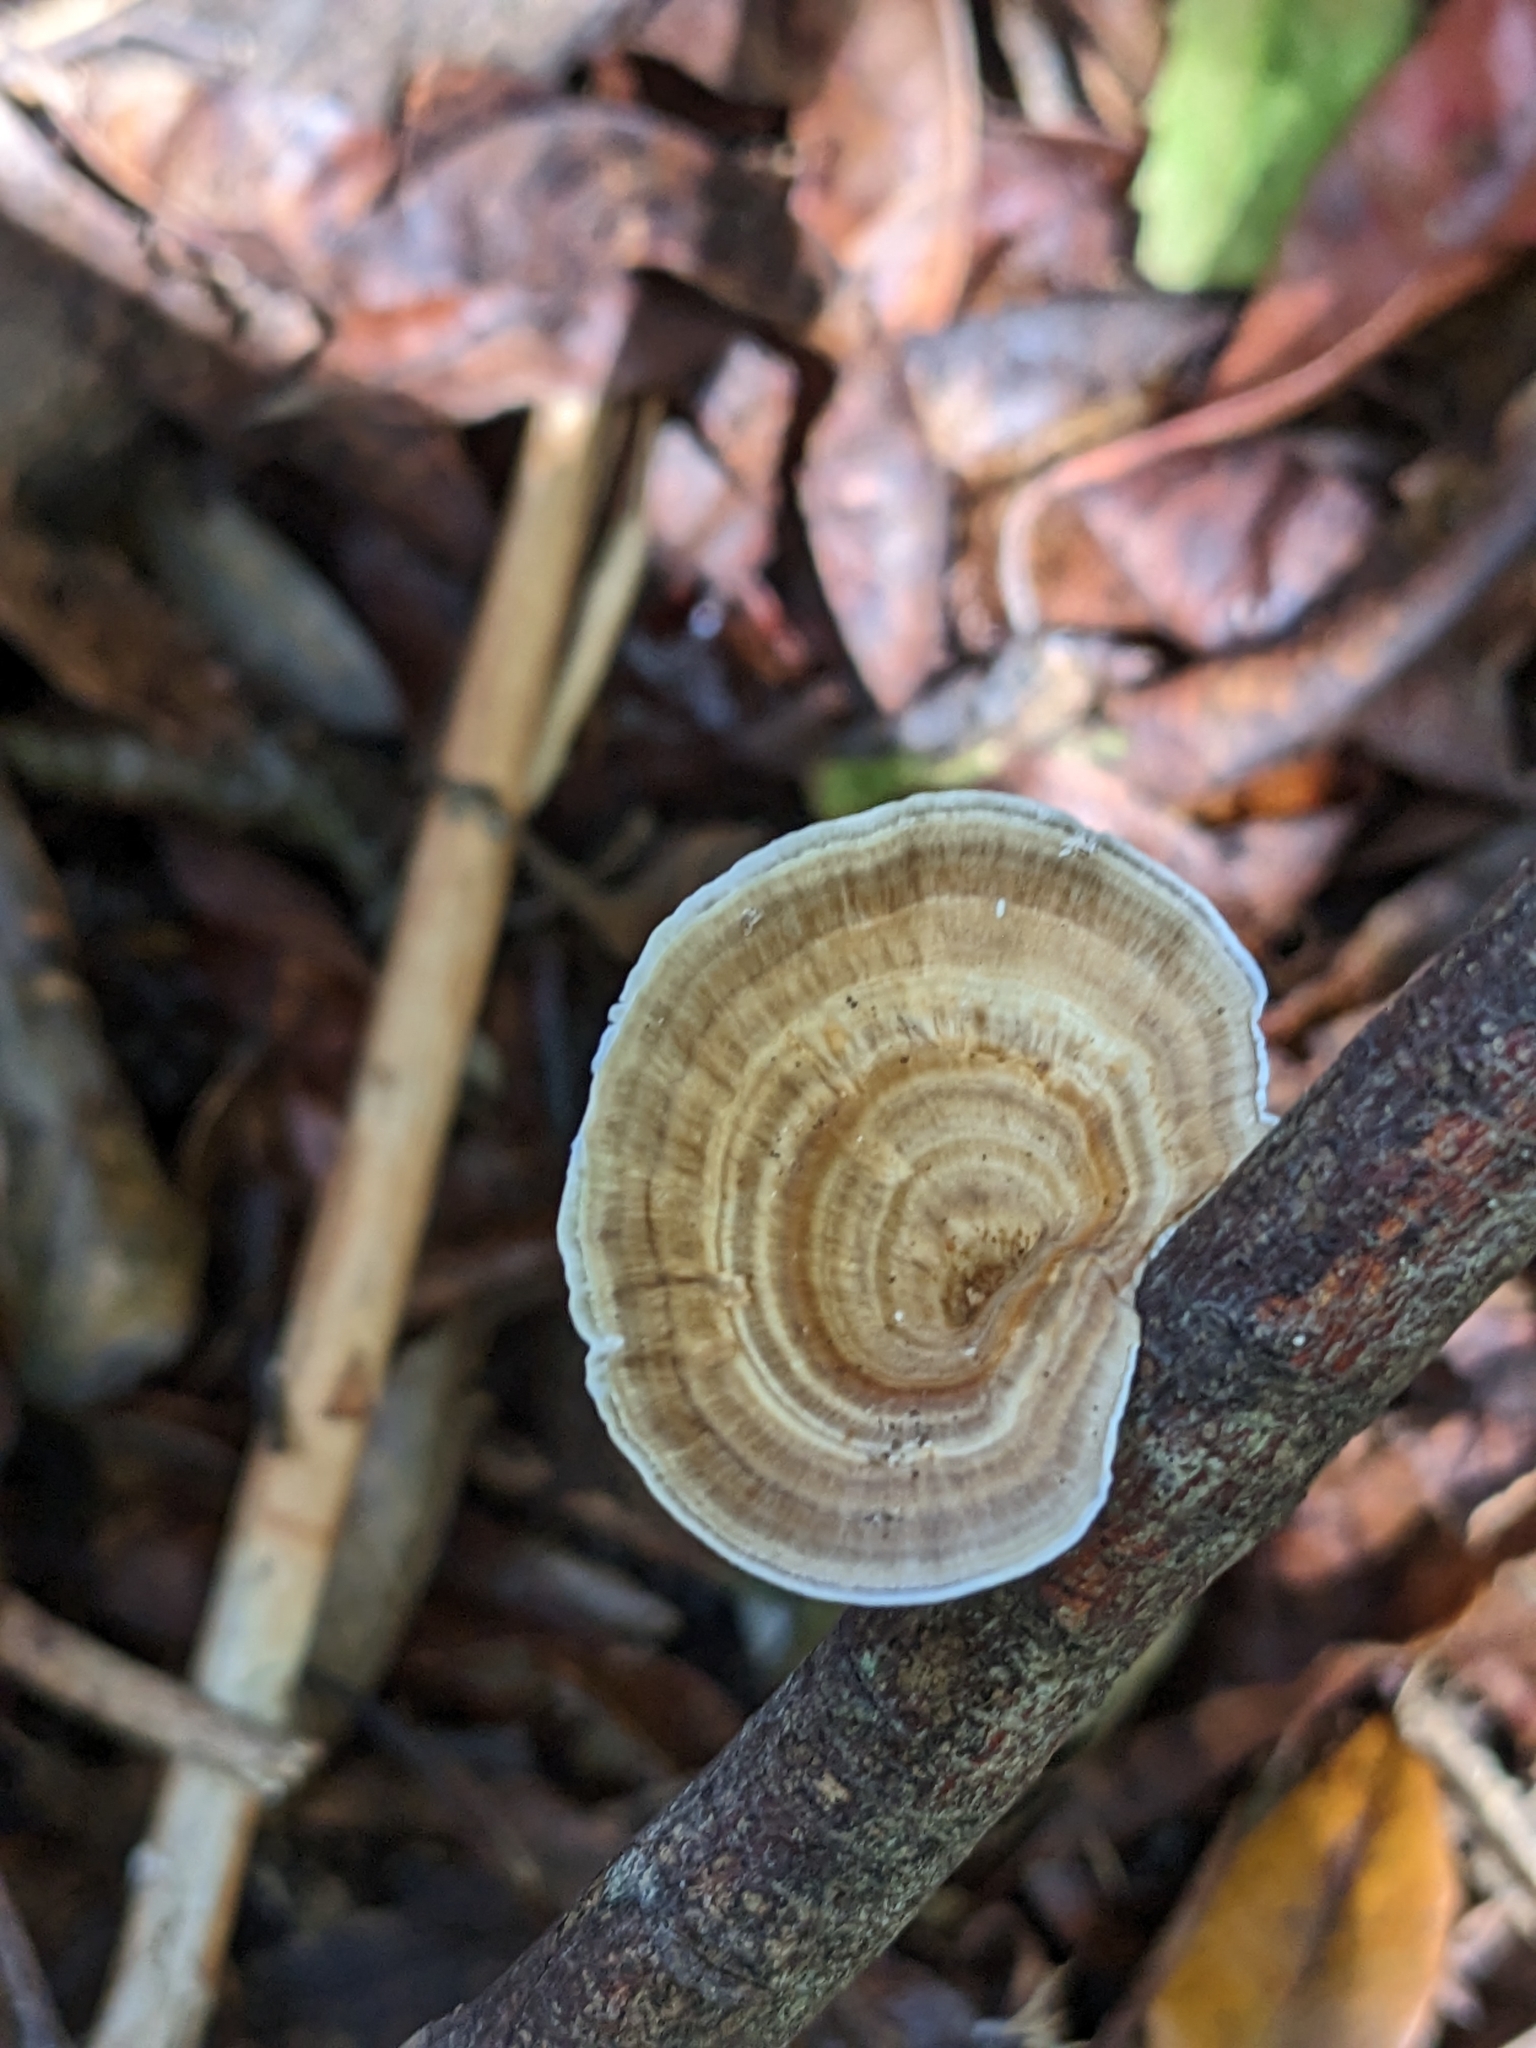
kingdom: Fungi
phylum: Basidiomycota
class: Agaricomycetes
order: Polyporales
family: Polyporaceae
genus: Microporus
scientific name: Microporus xanthopus
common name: Yellow-stemmed micropore
